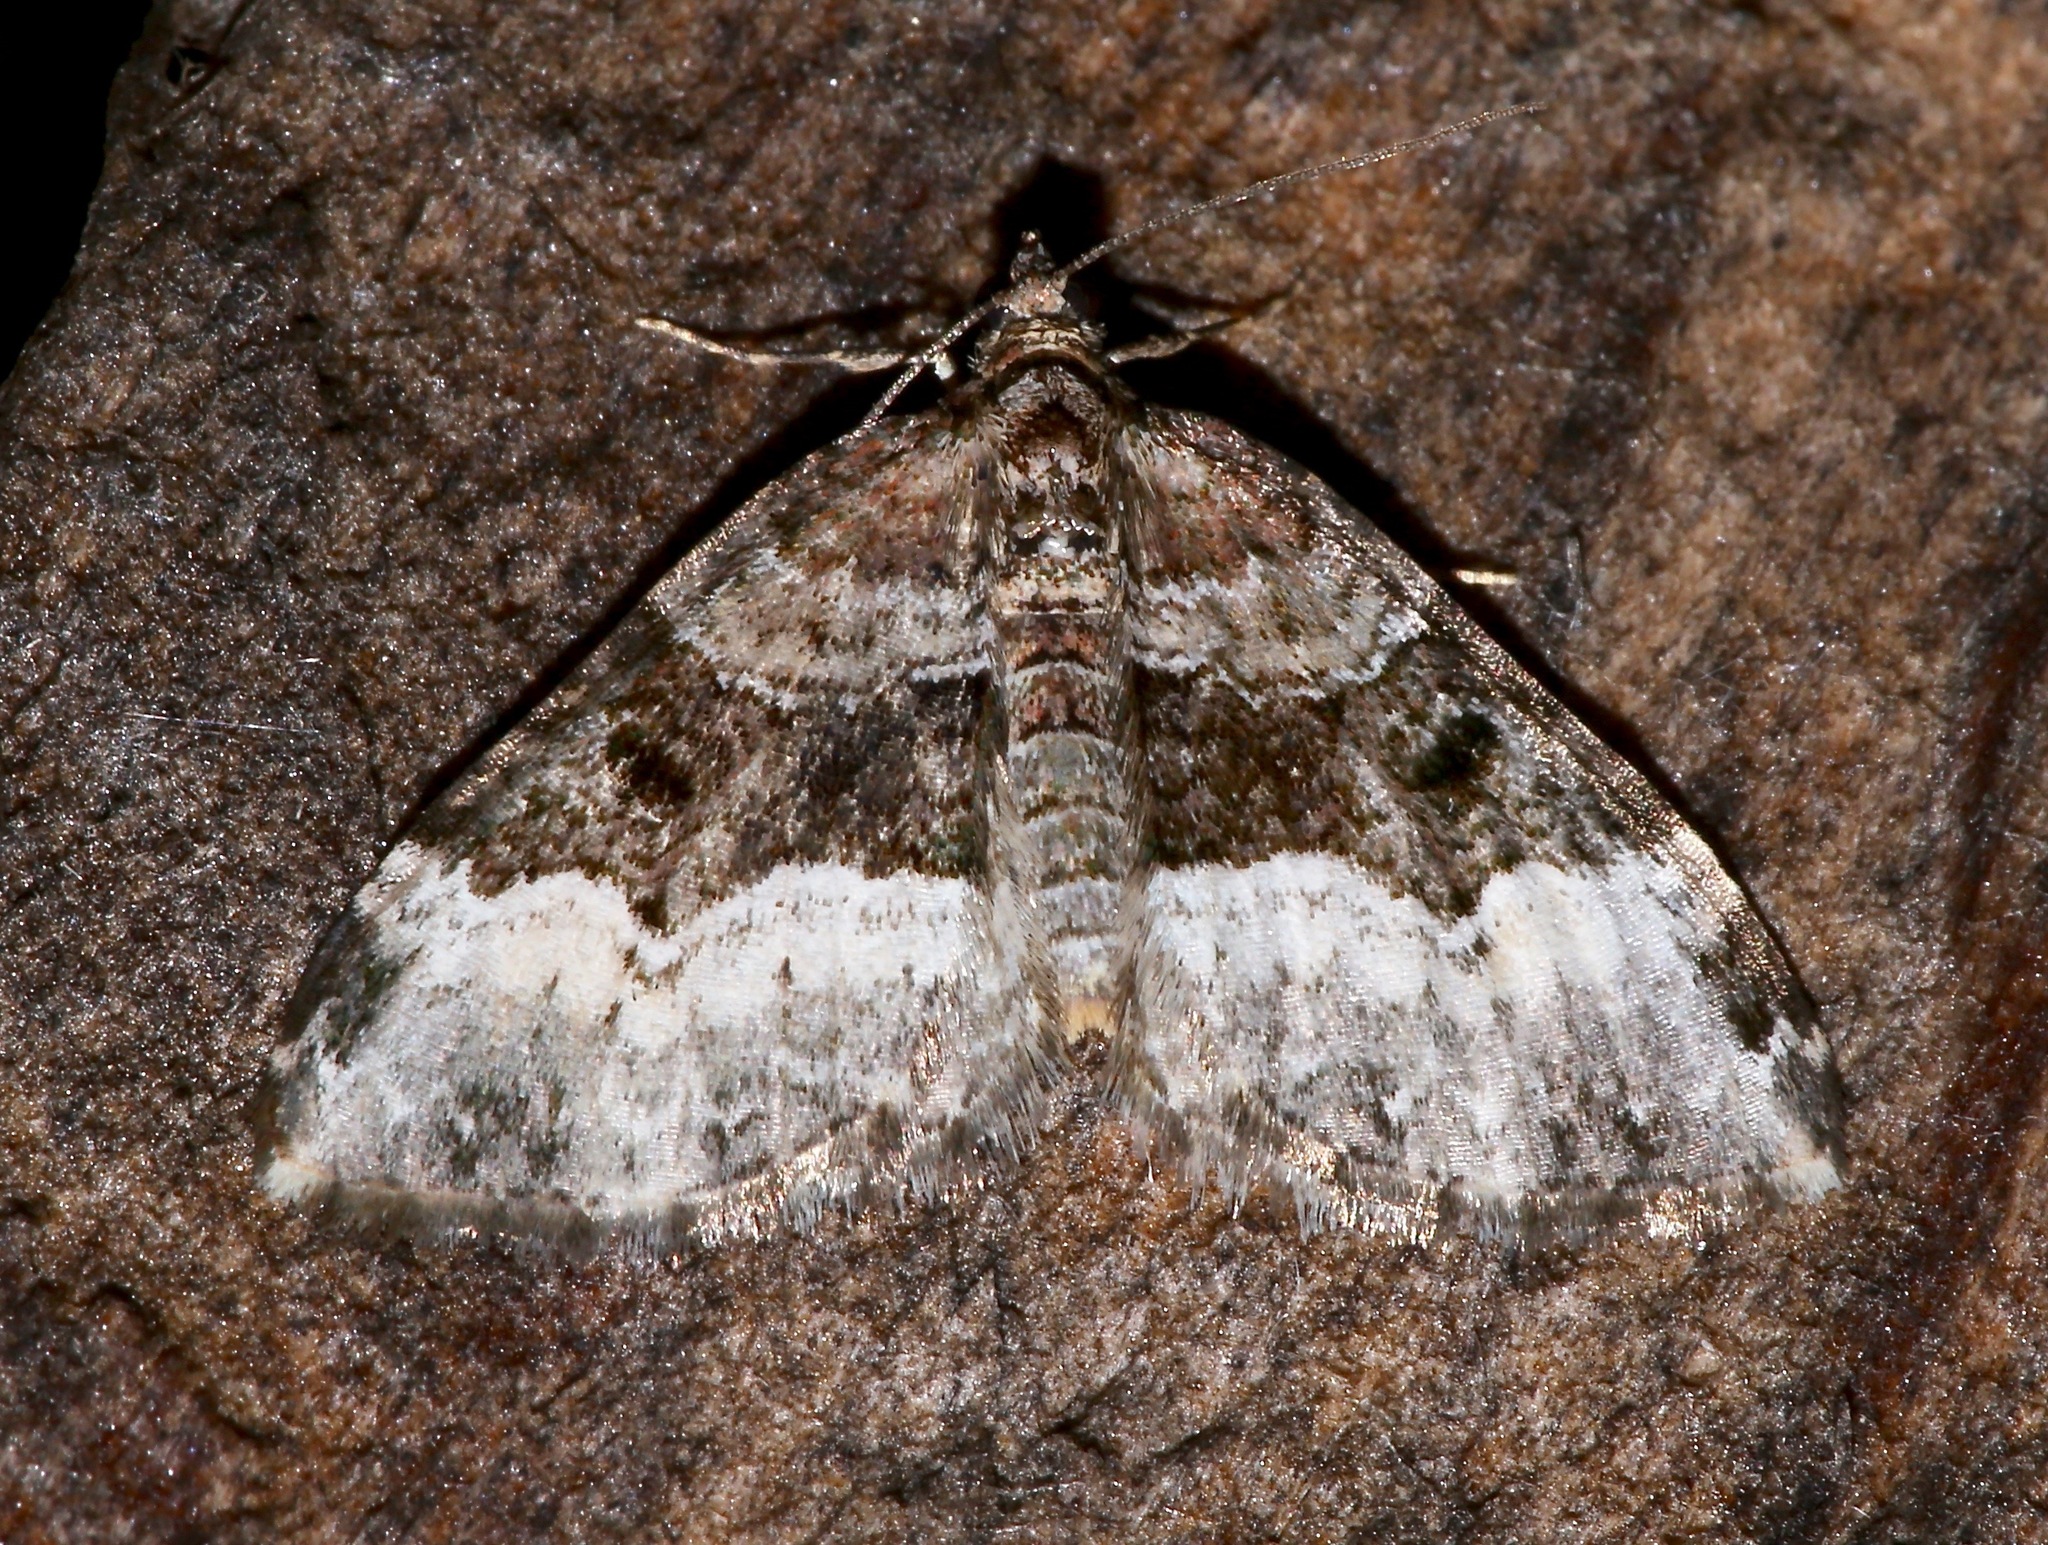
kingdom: Animalia
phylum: Arthropoda
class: Insecta
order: Lepidoptera
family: Geometridae
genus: Euphyia
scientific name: Euphyia intermediata
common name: Sharp-angled carpet
